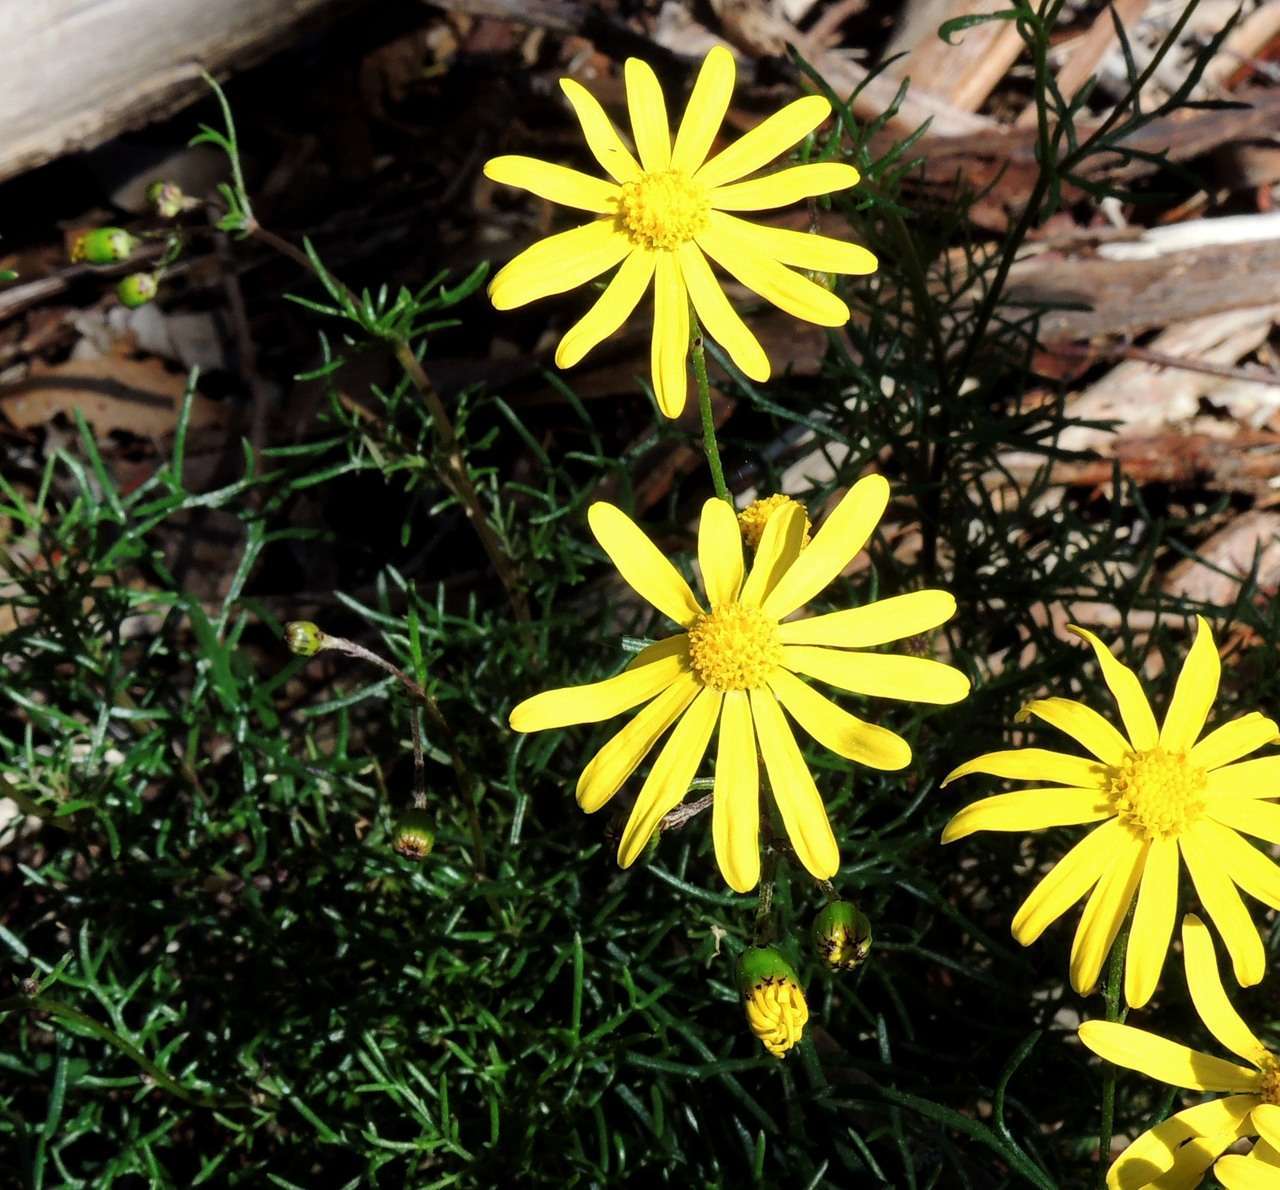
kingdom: Plantae
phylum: Tracheophyta
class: Magnoliopsida
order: Asterales
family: Asteraceae
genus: Senecio
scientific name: Senecio pinnatifolius
